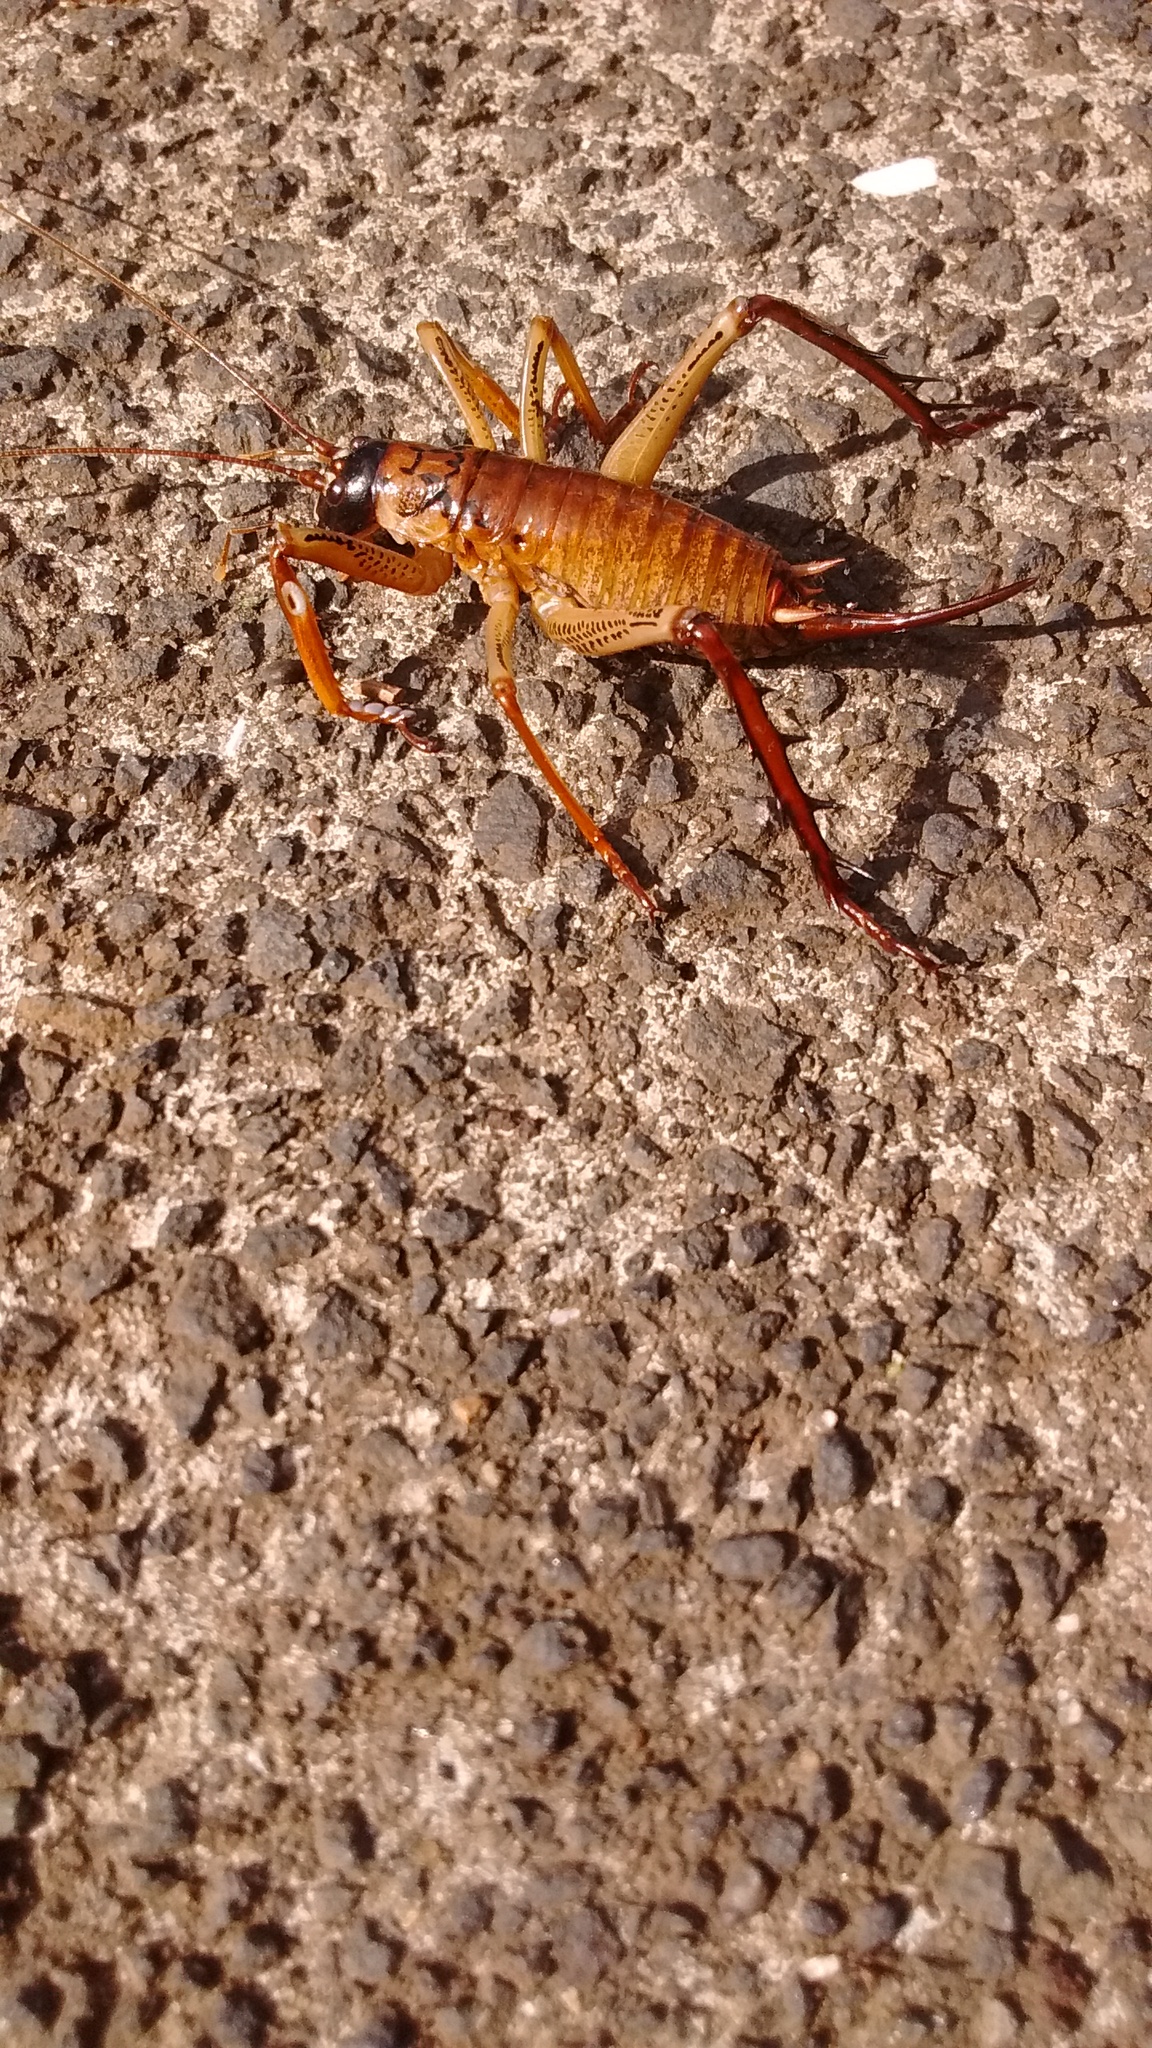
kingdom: Animalia
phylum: Arthropoda
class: Insecta
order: Orthoptera
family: Anostostomatidae
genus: Hemideina
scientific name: Hemideina thoracica
